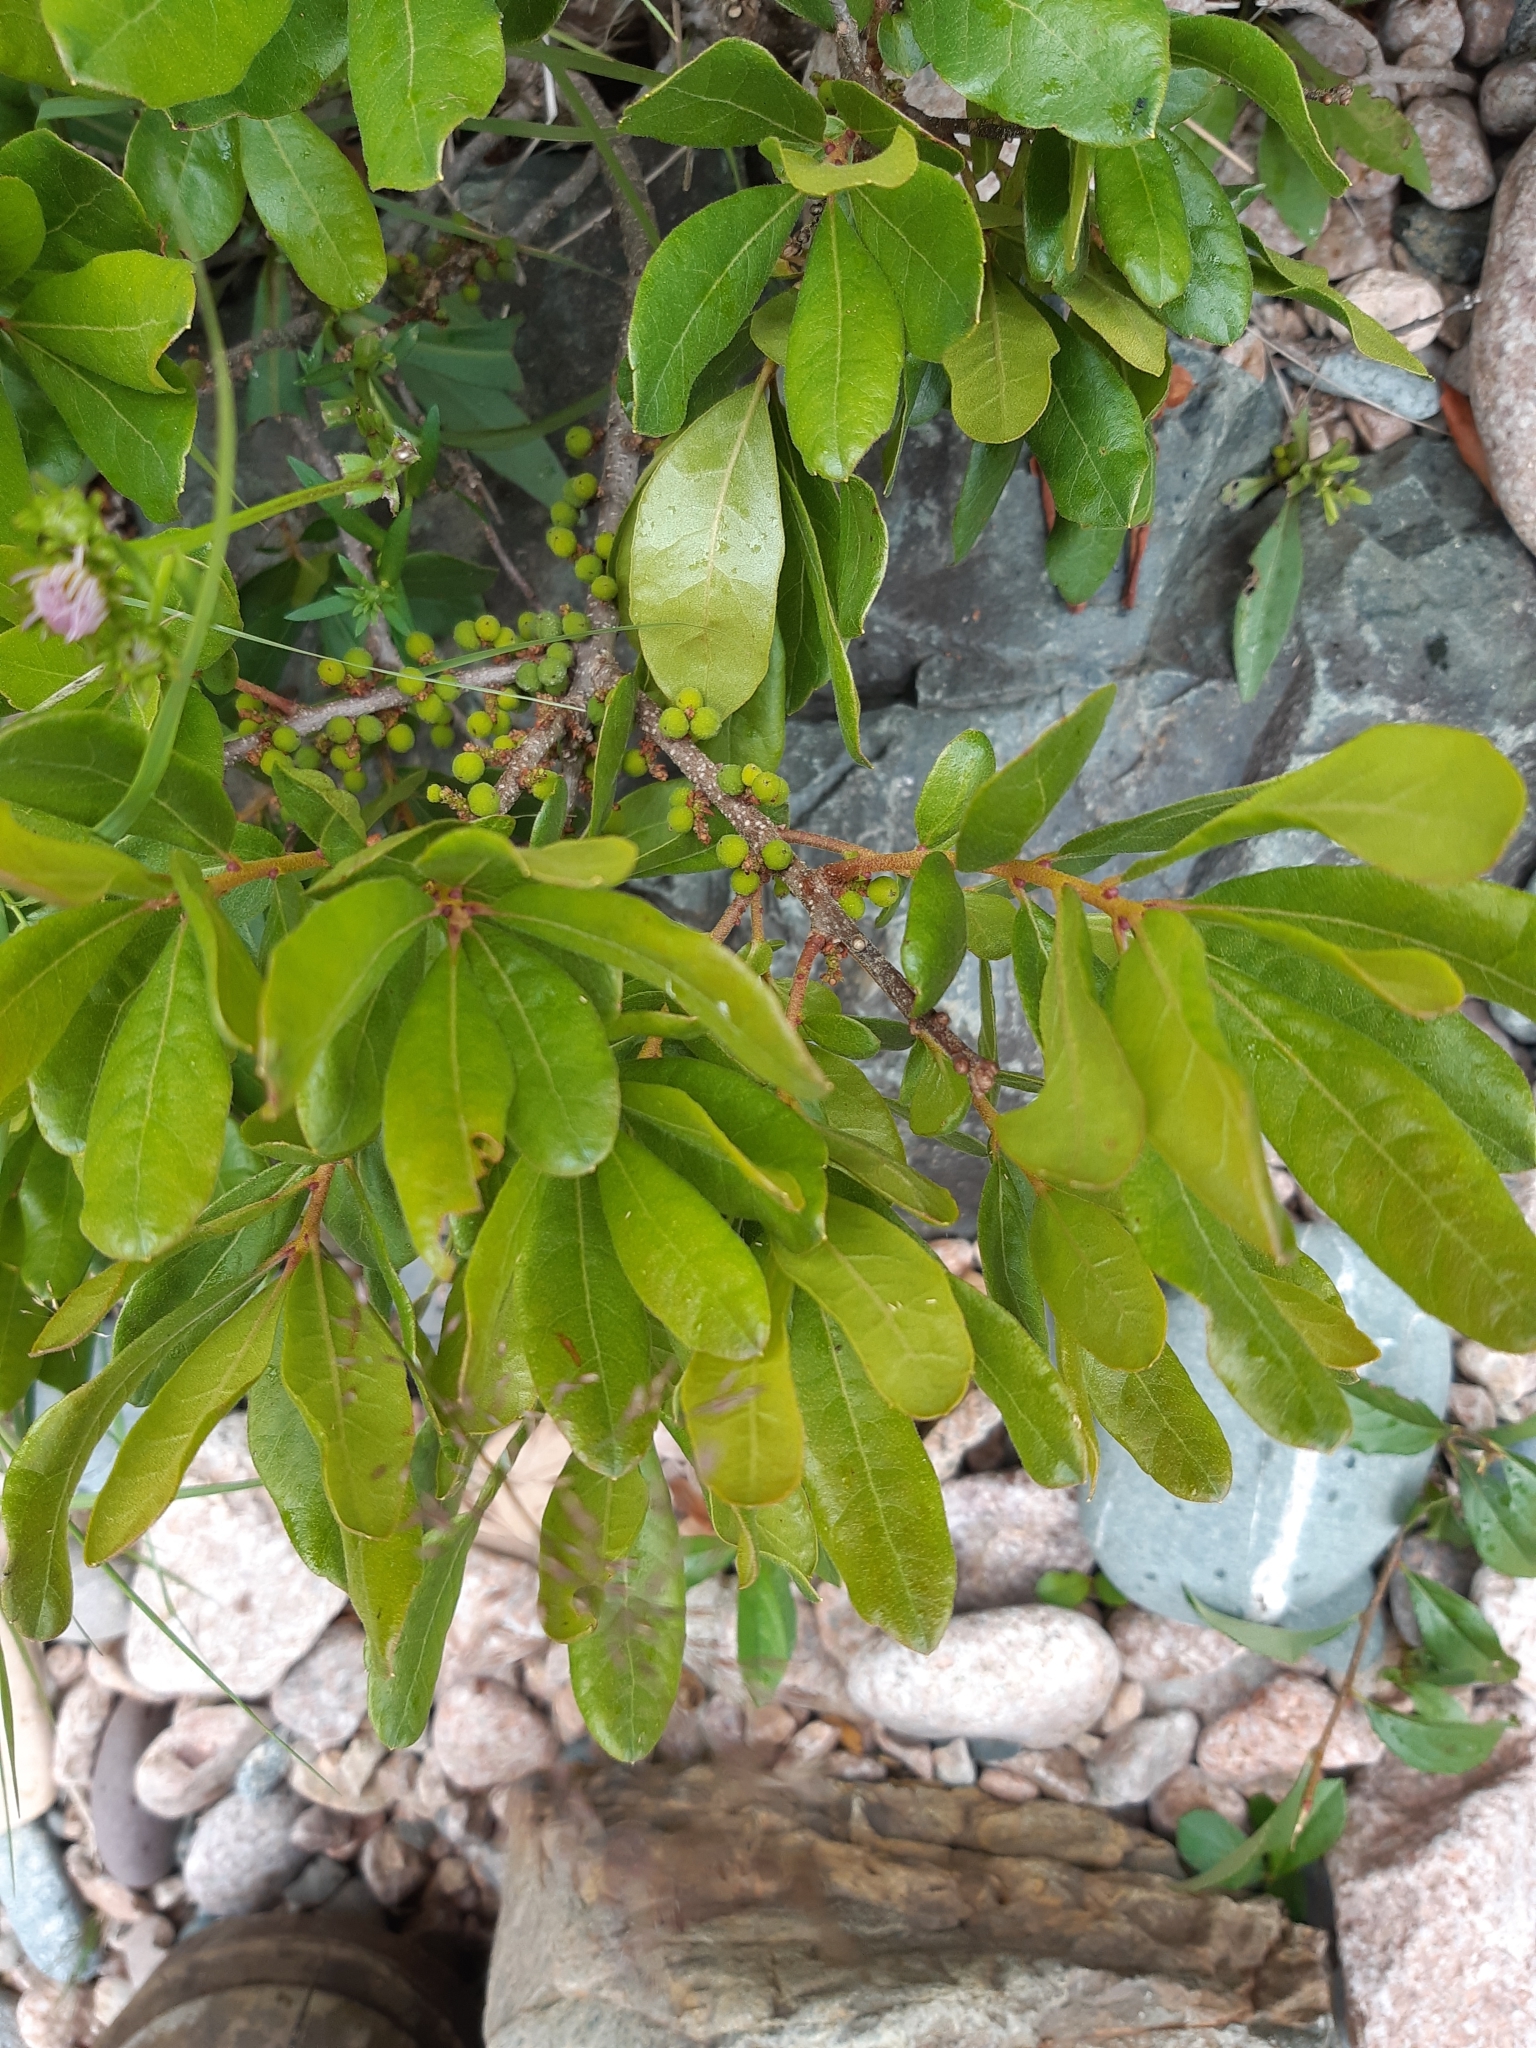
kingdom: Plantae
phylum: Tracheophyta
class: Magnoliopsida
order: Fagales
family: Myricaceae
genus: Morella
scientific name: Morella pensylvanica
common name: Northern bayberry
